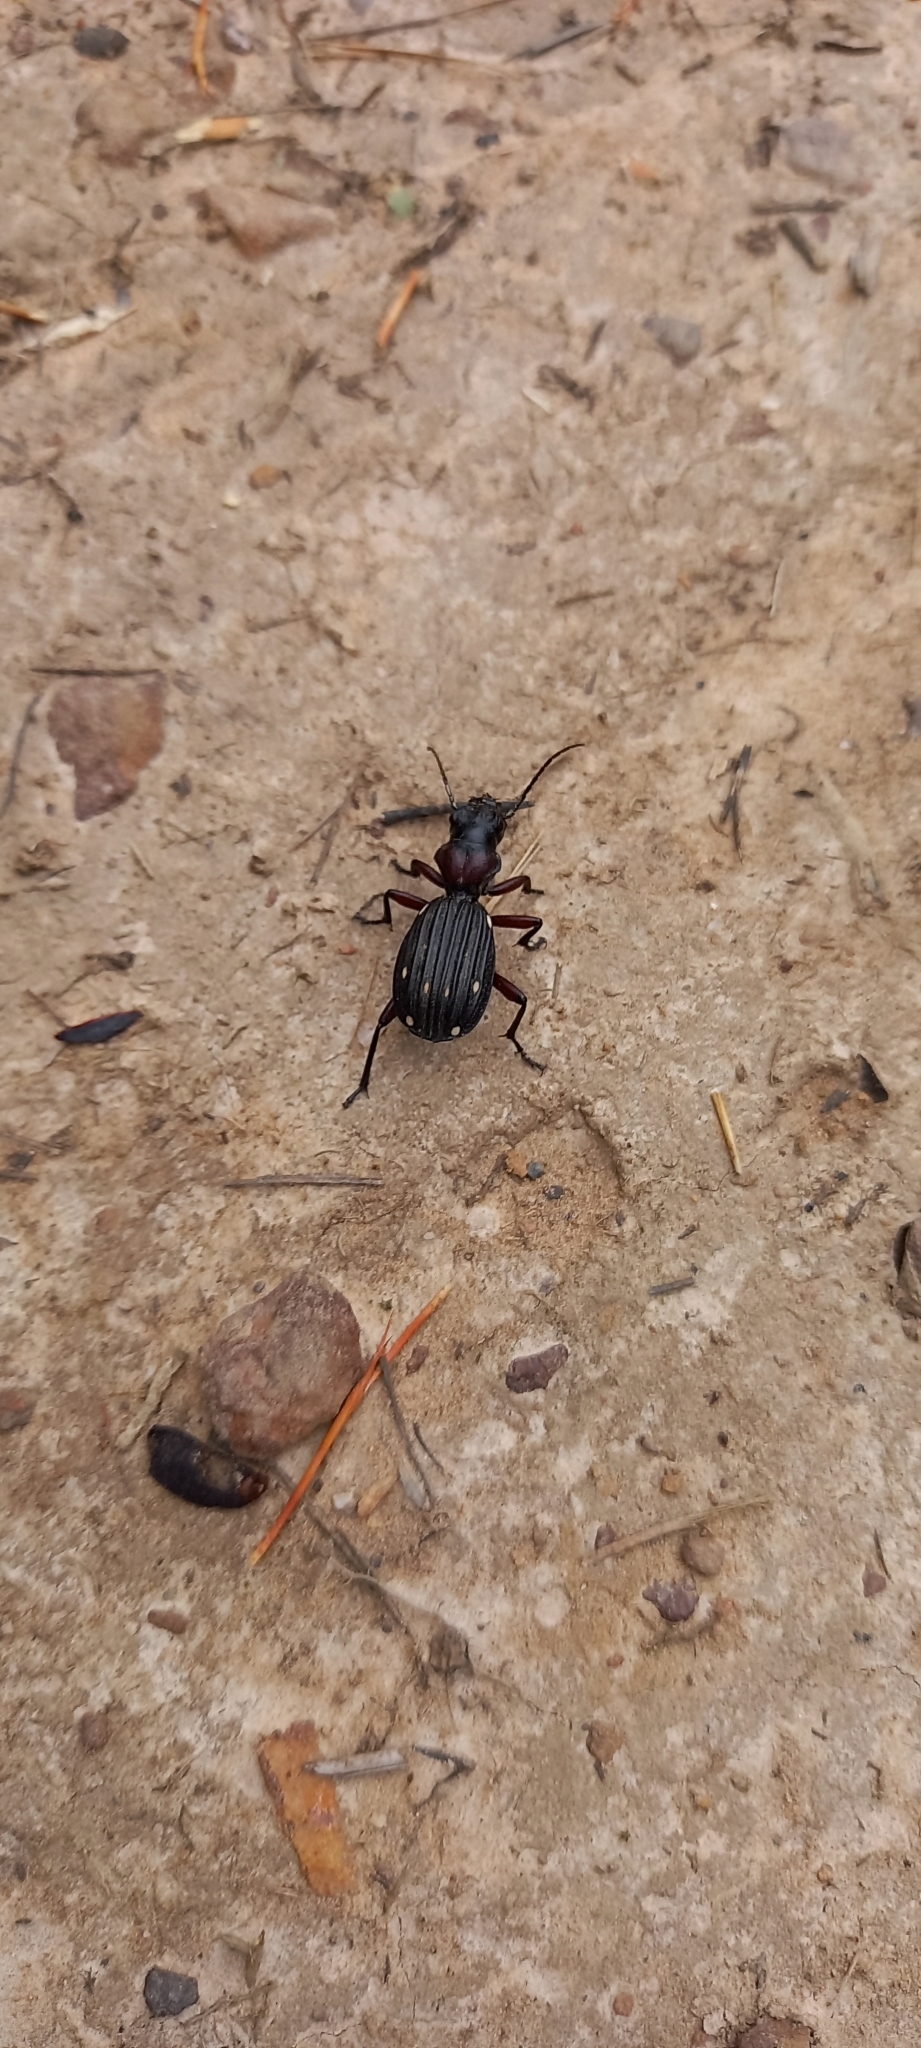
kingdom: Animalia
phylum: Arthropoda
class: Insecta
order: Coleoptera
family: Carabidae
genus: Anthia
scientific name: Anthia decemguttata
